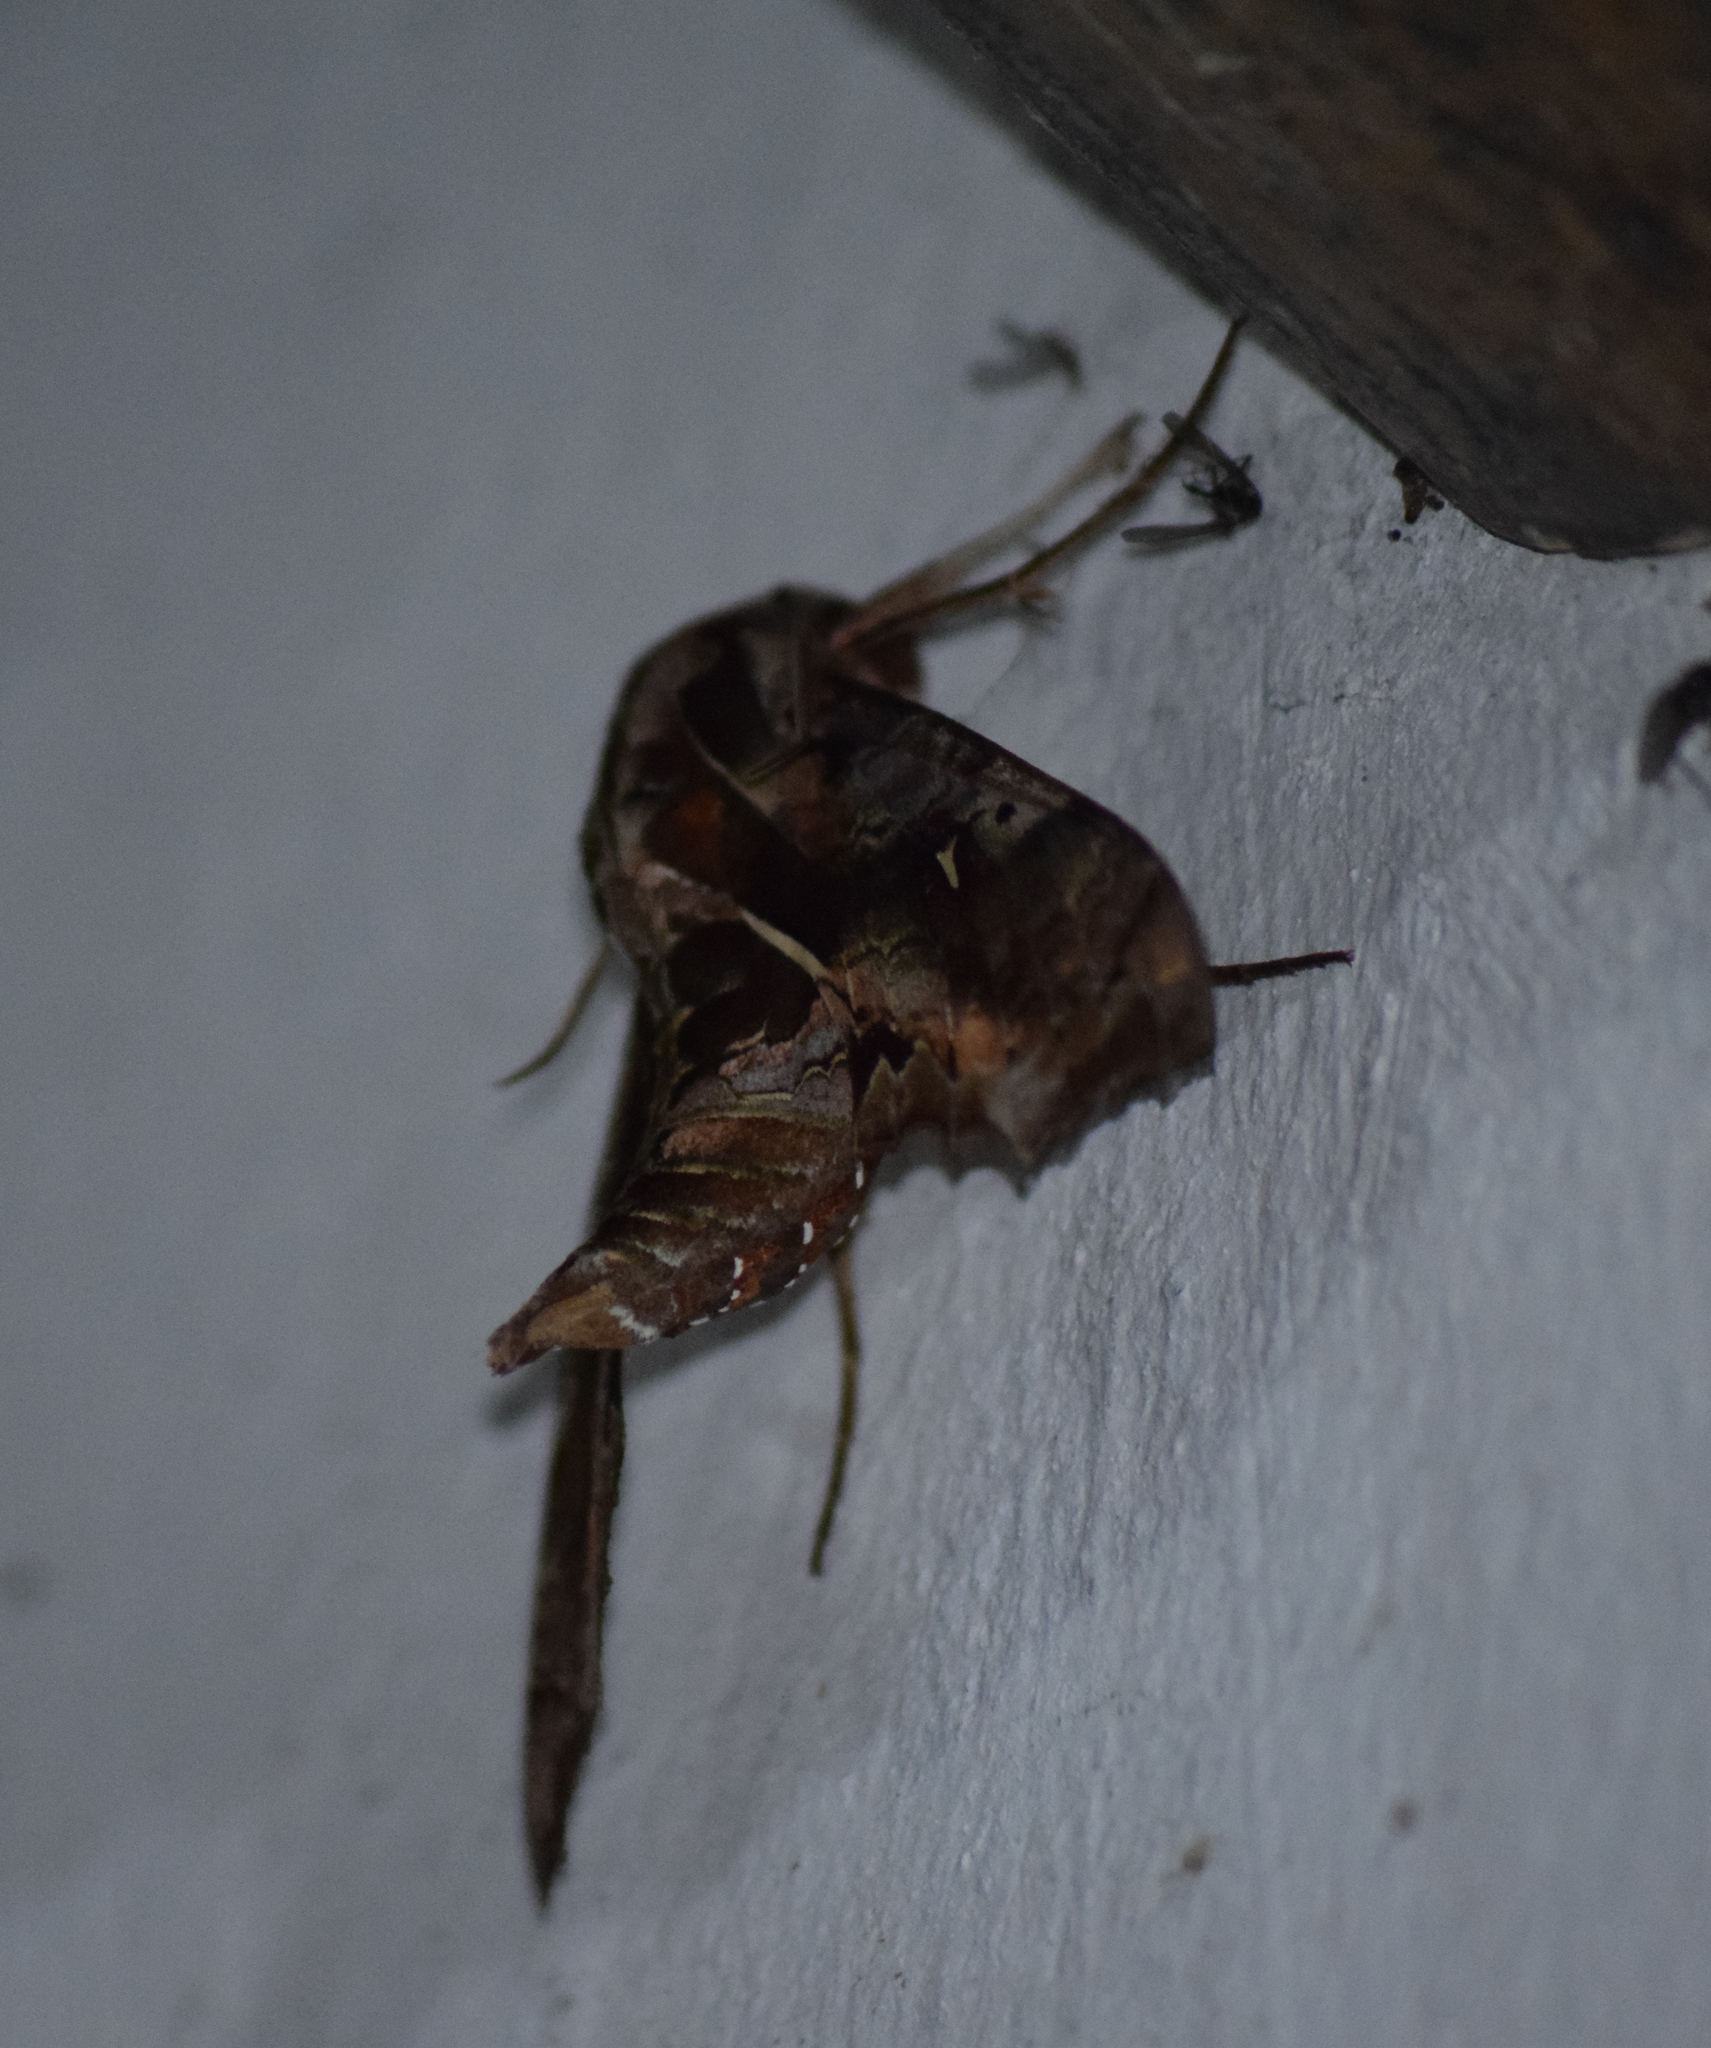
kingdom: Animalia
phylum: Arthropoda
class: Insecta
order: Lepidoptera
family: Sphingidae
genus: Hemeroplanes
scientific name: Hemeroplanes ornatus
